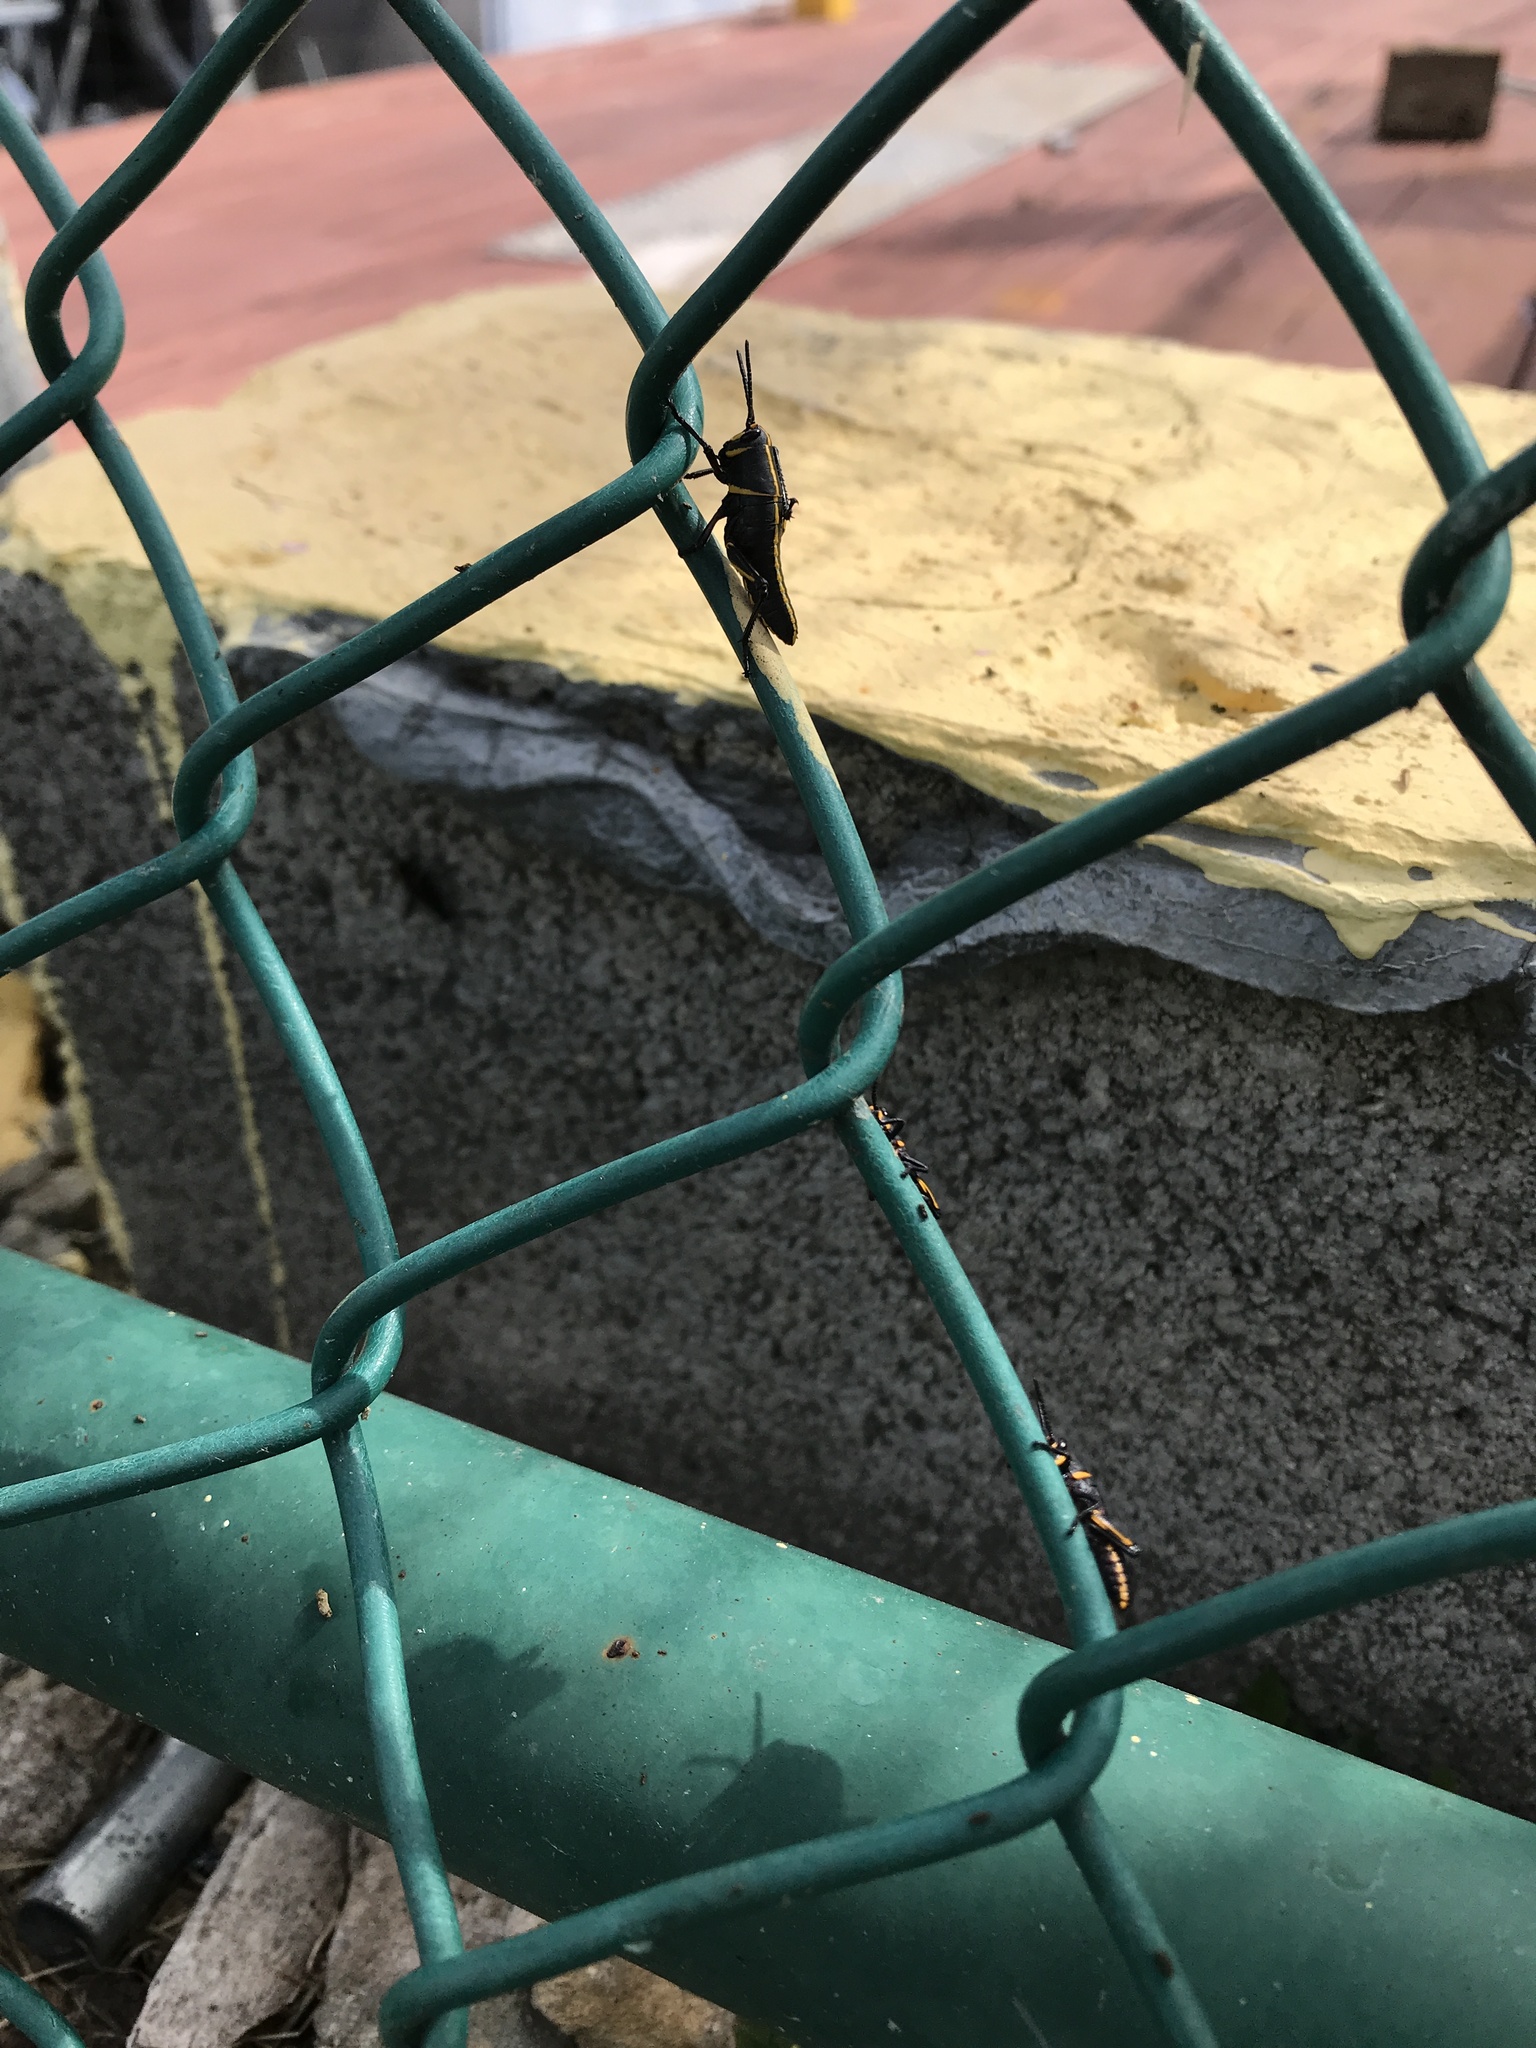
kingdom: Animalia
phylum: Arthropoda
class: Insecta
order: Orthoptera
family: Romaleidae
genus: Romalea
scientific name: Romalea microptera
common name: Eastern lubber grasshopper
